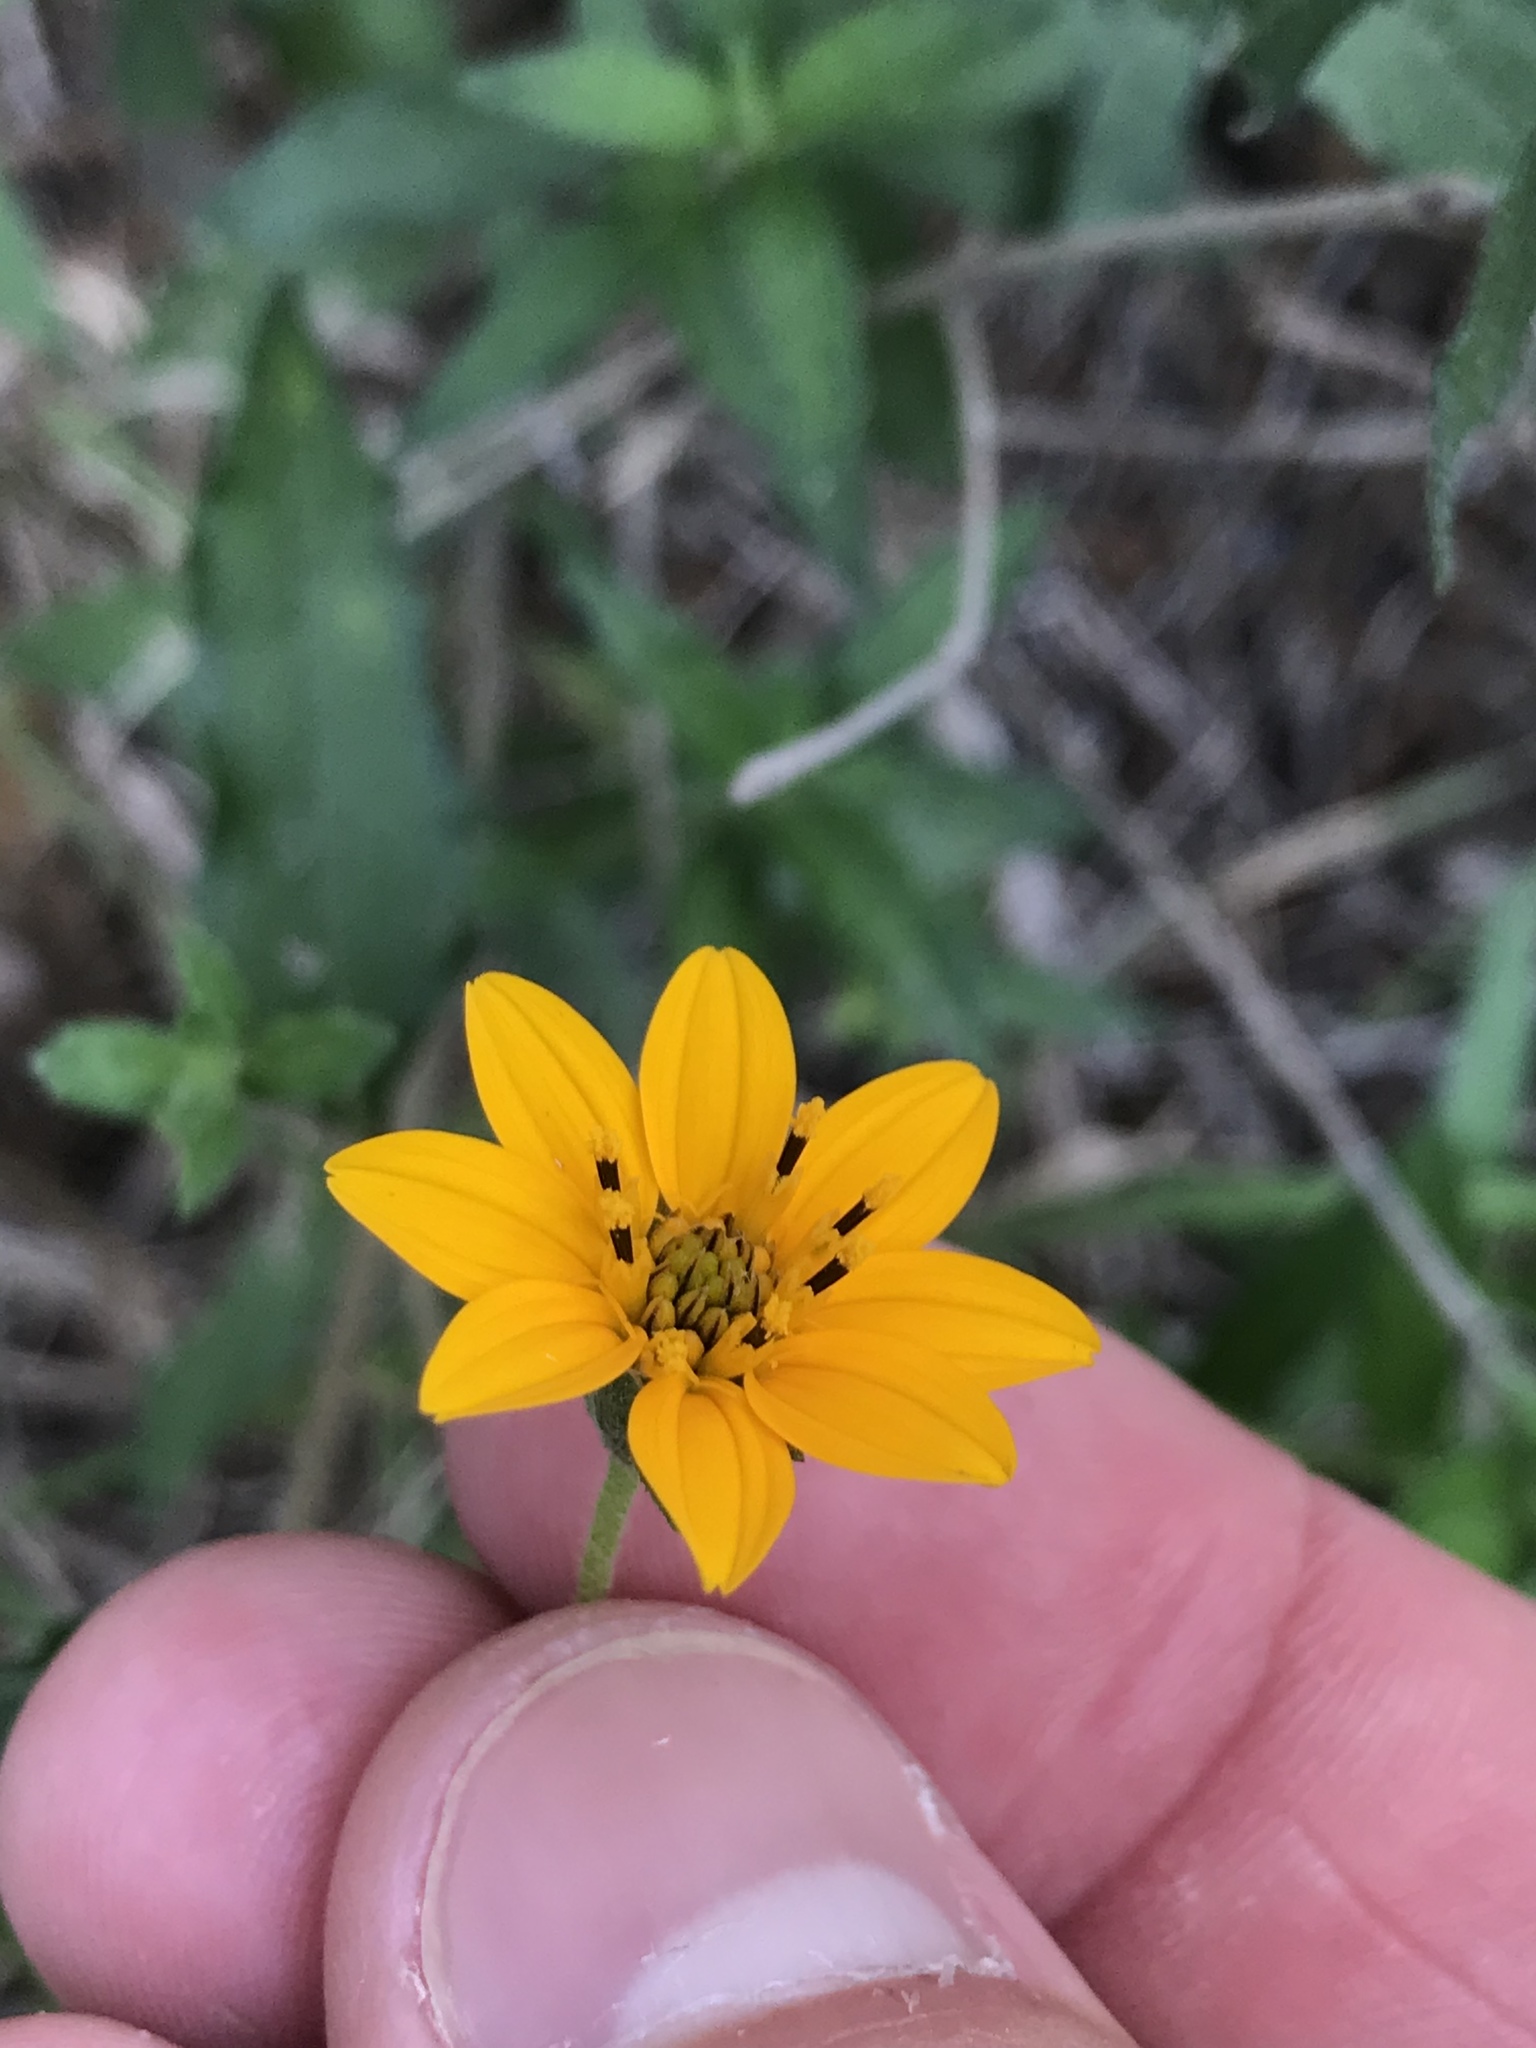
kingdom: Plantae
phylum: Tracheophyta
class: Magnoliopsida
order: Asterales
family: Asteraceae
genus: Wedelia
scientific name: Wedelia acapulcensis
